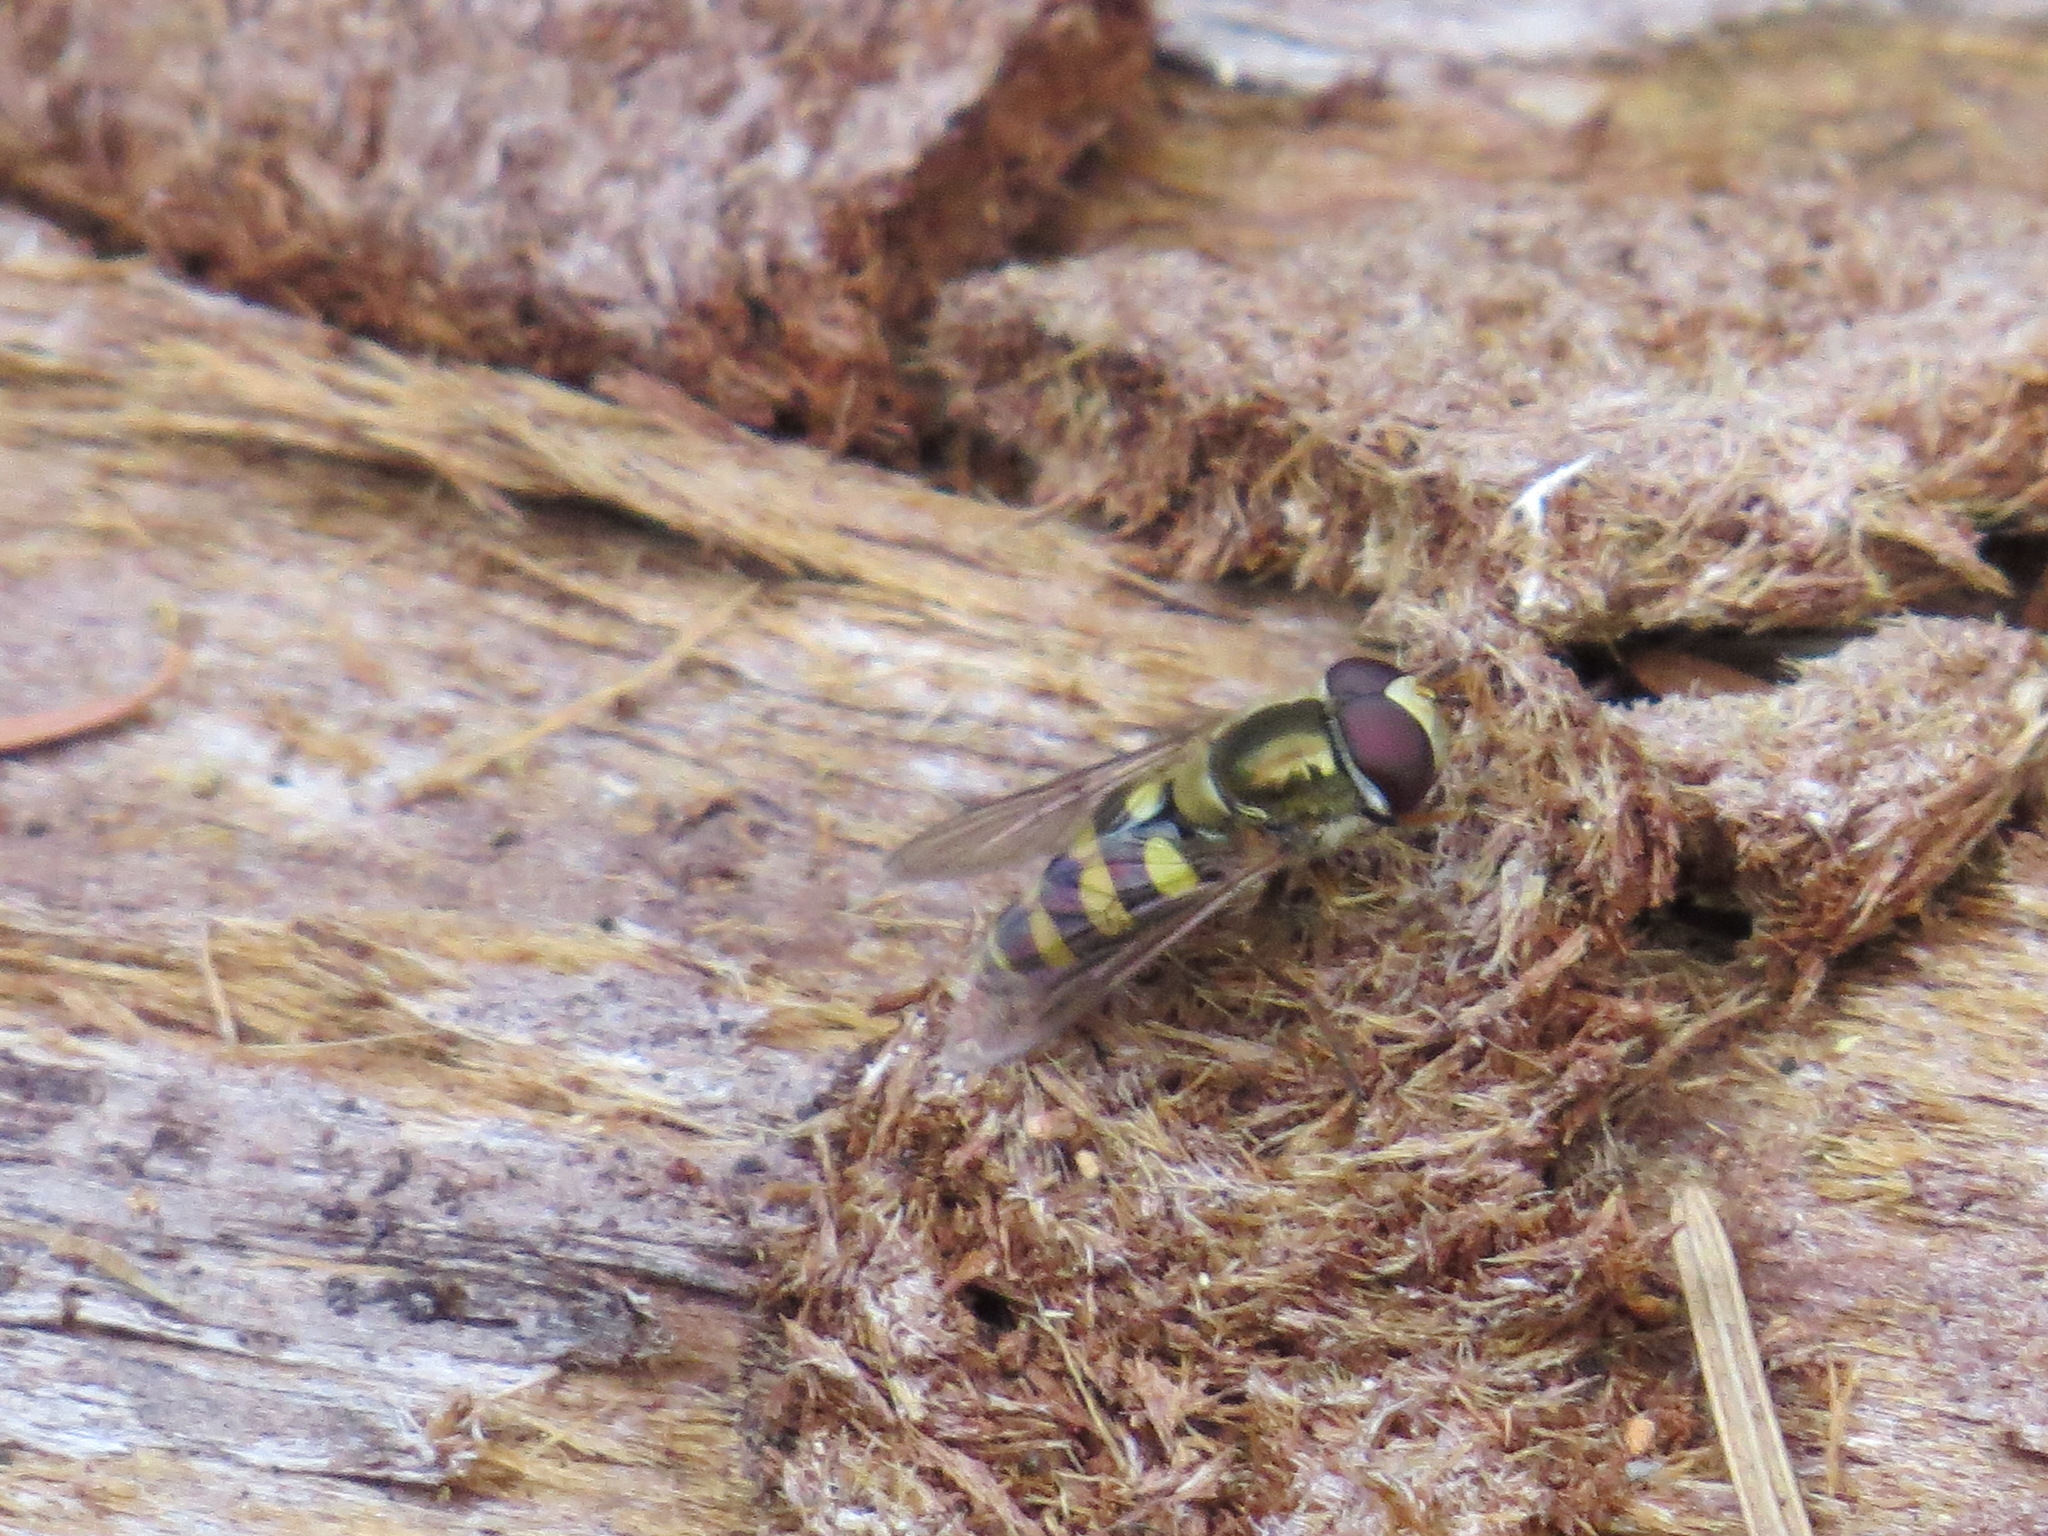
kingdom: Animalia
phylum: Arthropoda
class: Insecta
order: Diptera
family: Syrphidae
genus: Eupeodes
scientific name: Eupeodes fumipennis
